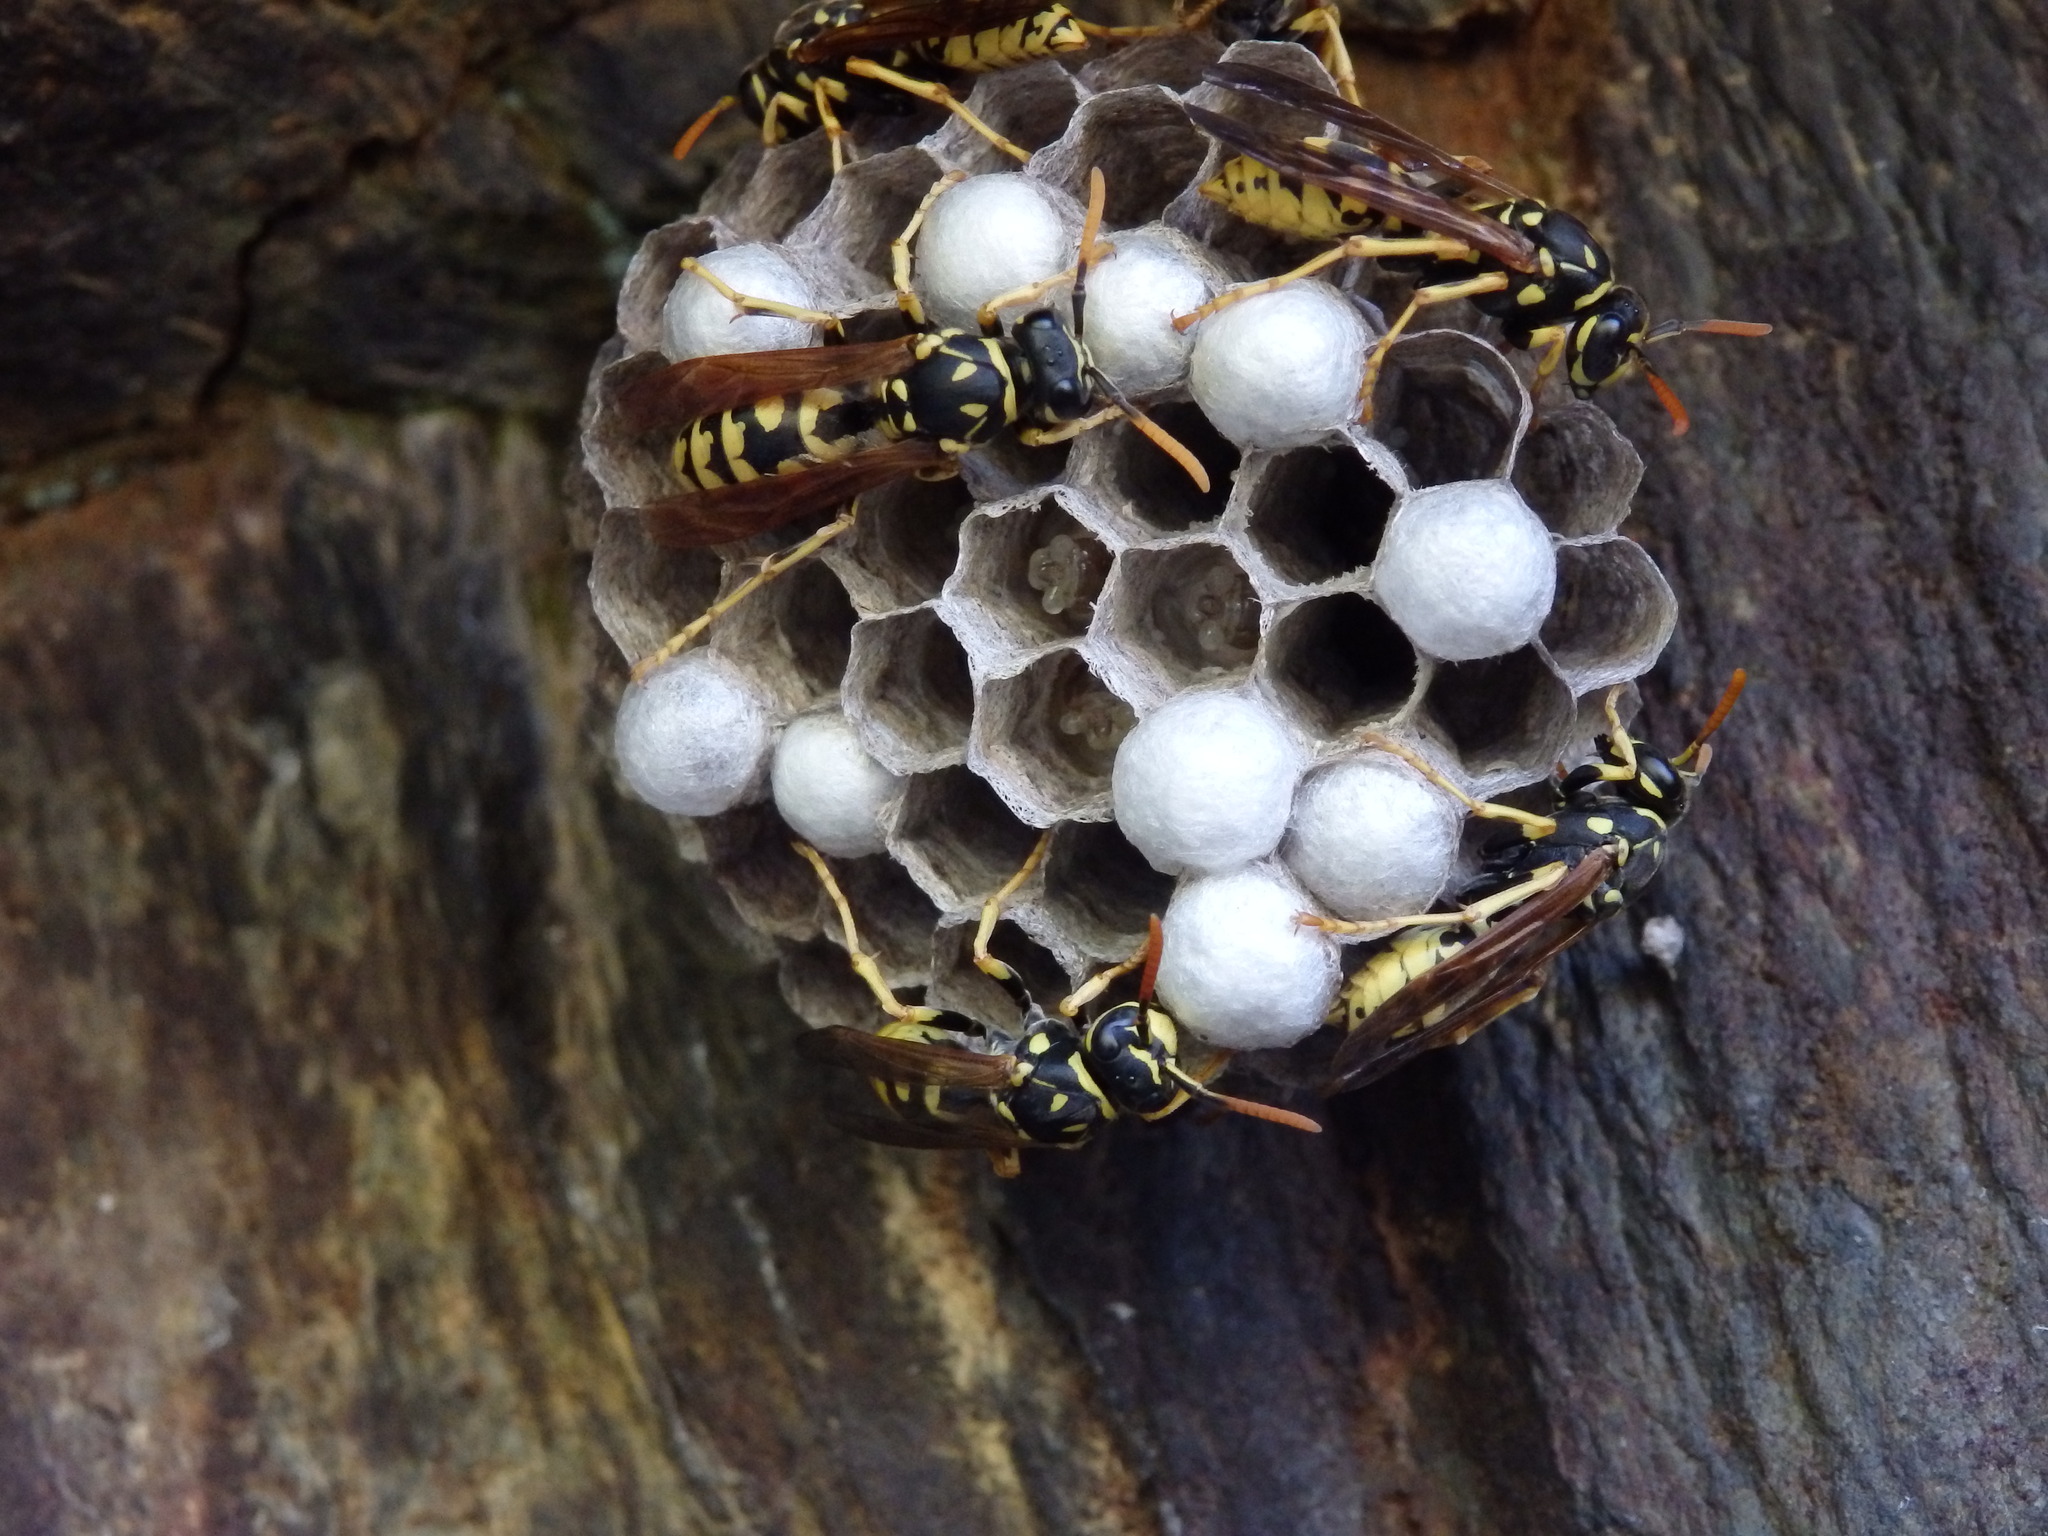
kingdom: Animalia
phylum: Arthropoda
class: Insecta
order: Hymenoptera
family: Eumenidae
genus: Polistes
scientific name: Polistes dominula
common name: Paper wasp
